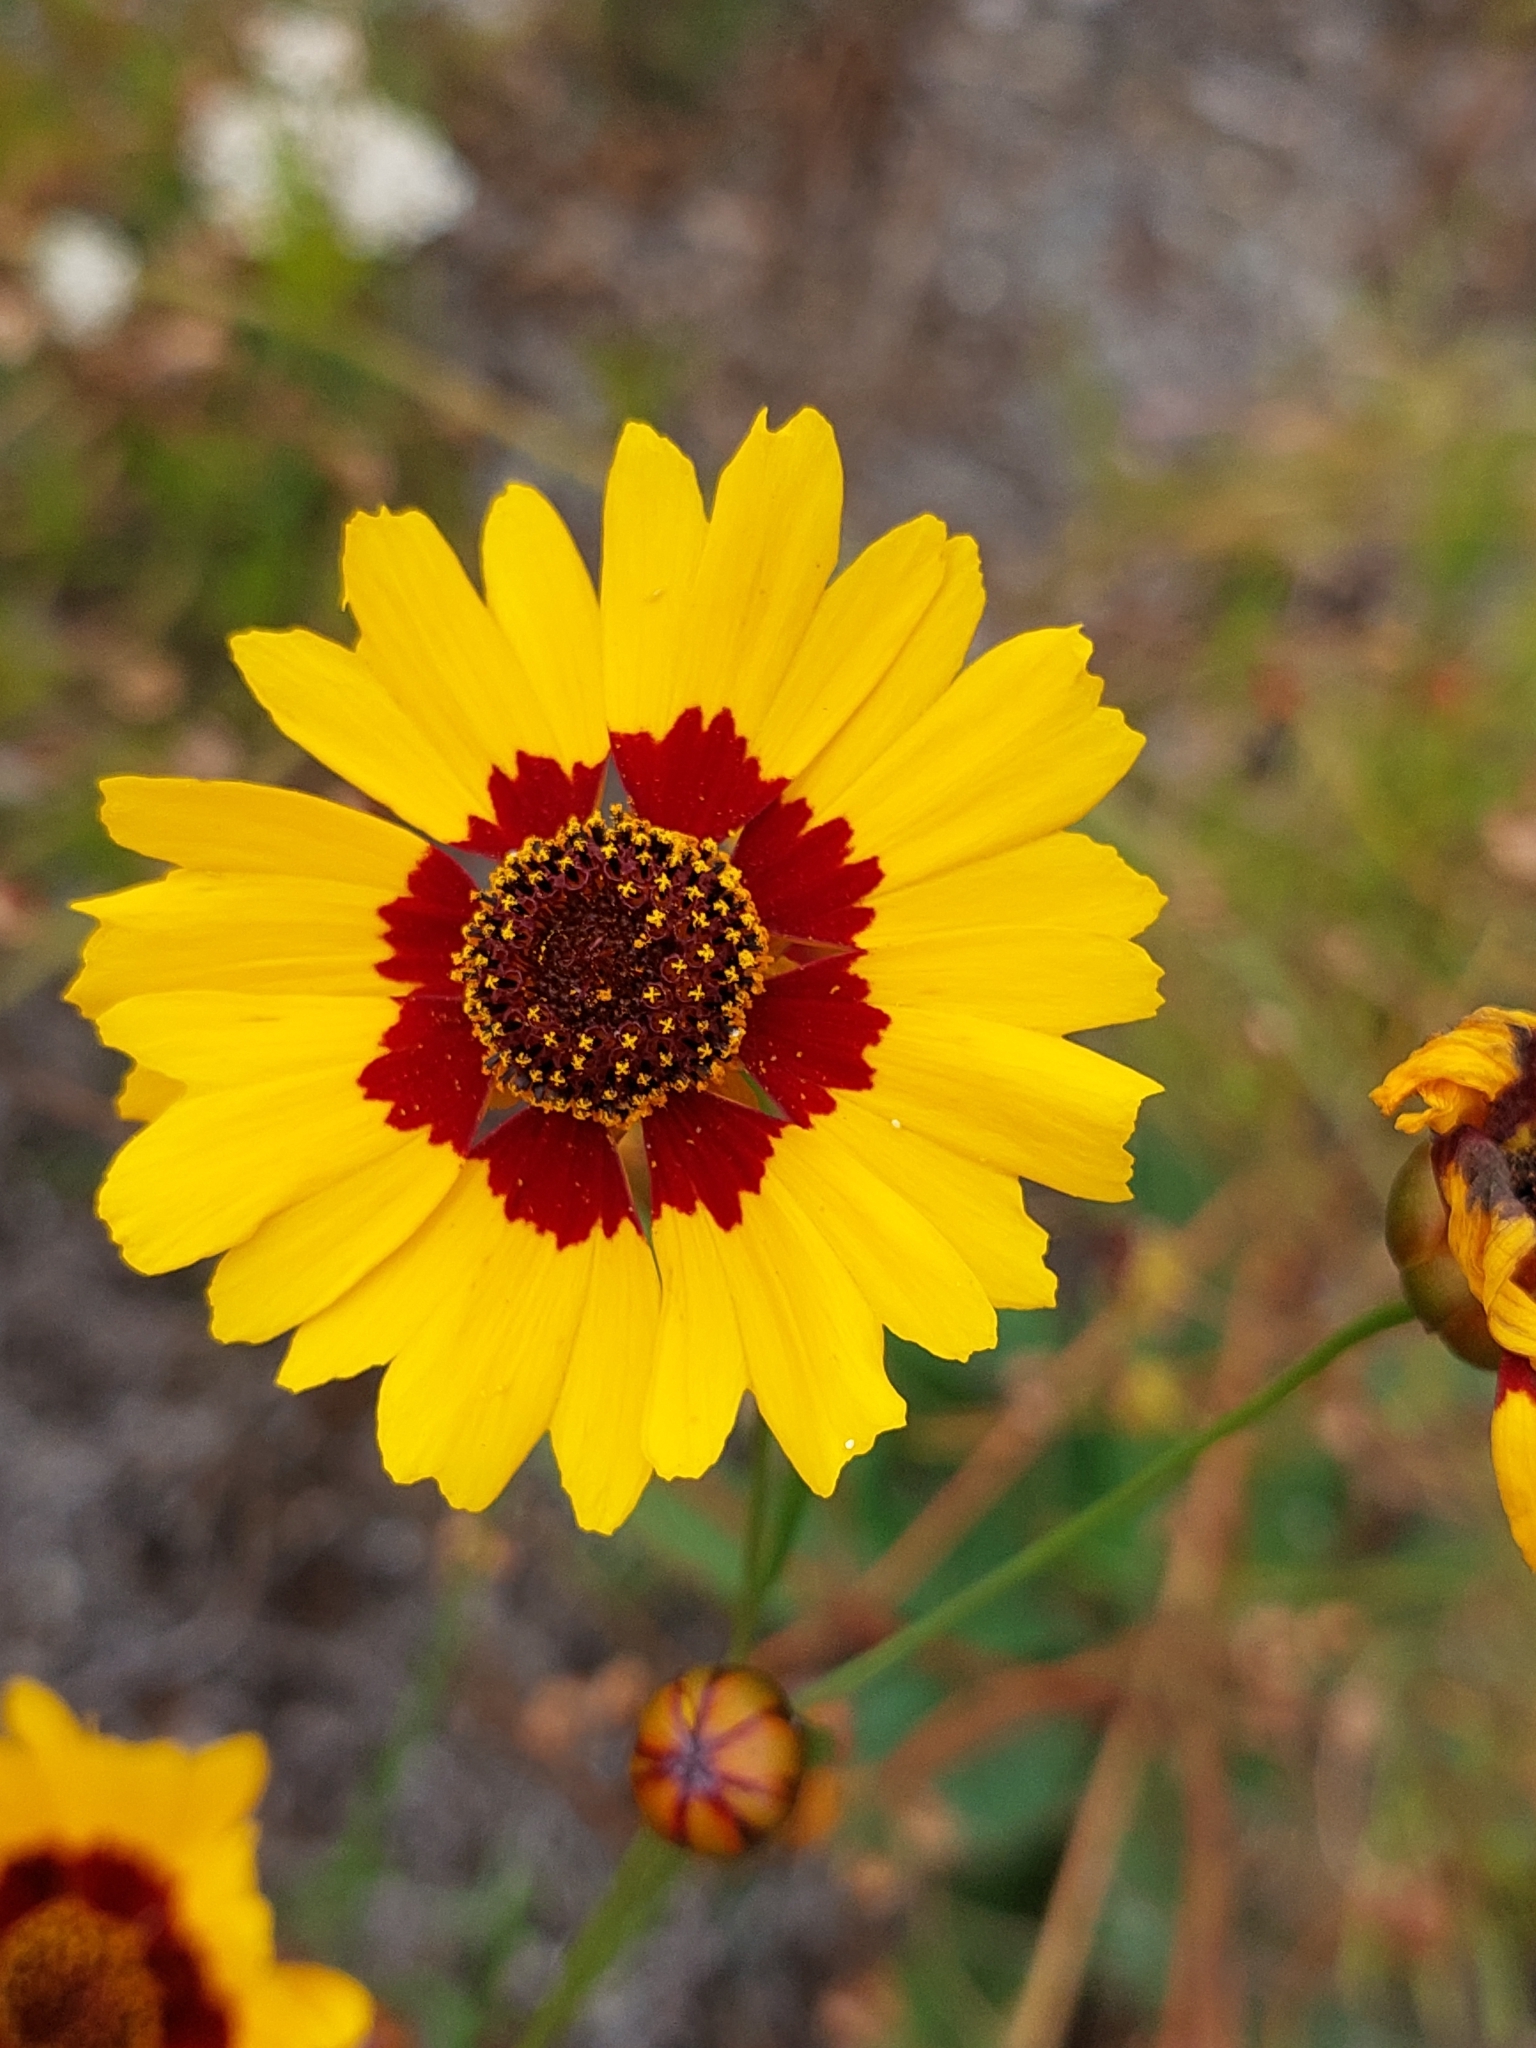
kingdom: Plantae
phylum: Tracheophyta
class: Magnoliopsida
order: Asterales
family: Asteraceae
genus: Coreopsis
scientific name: Coreopsis tinctoria
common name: Garden tickseed
